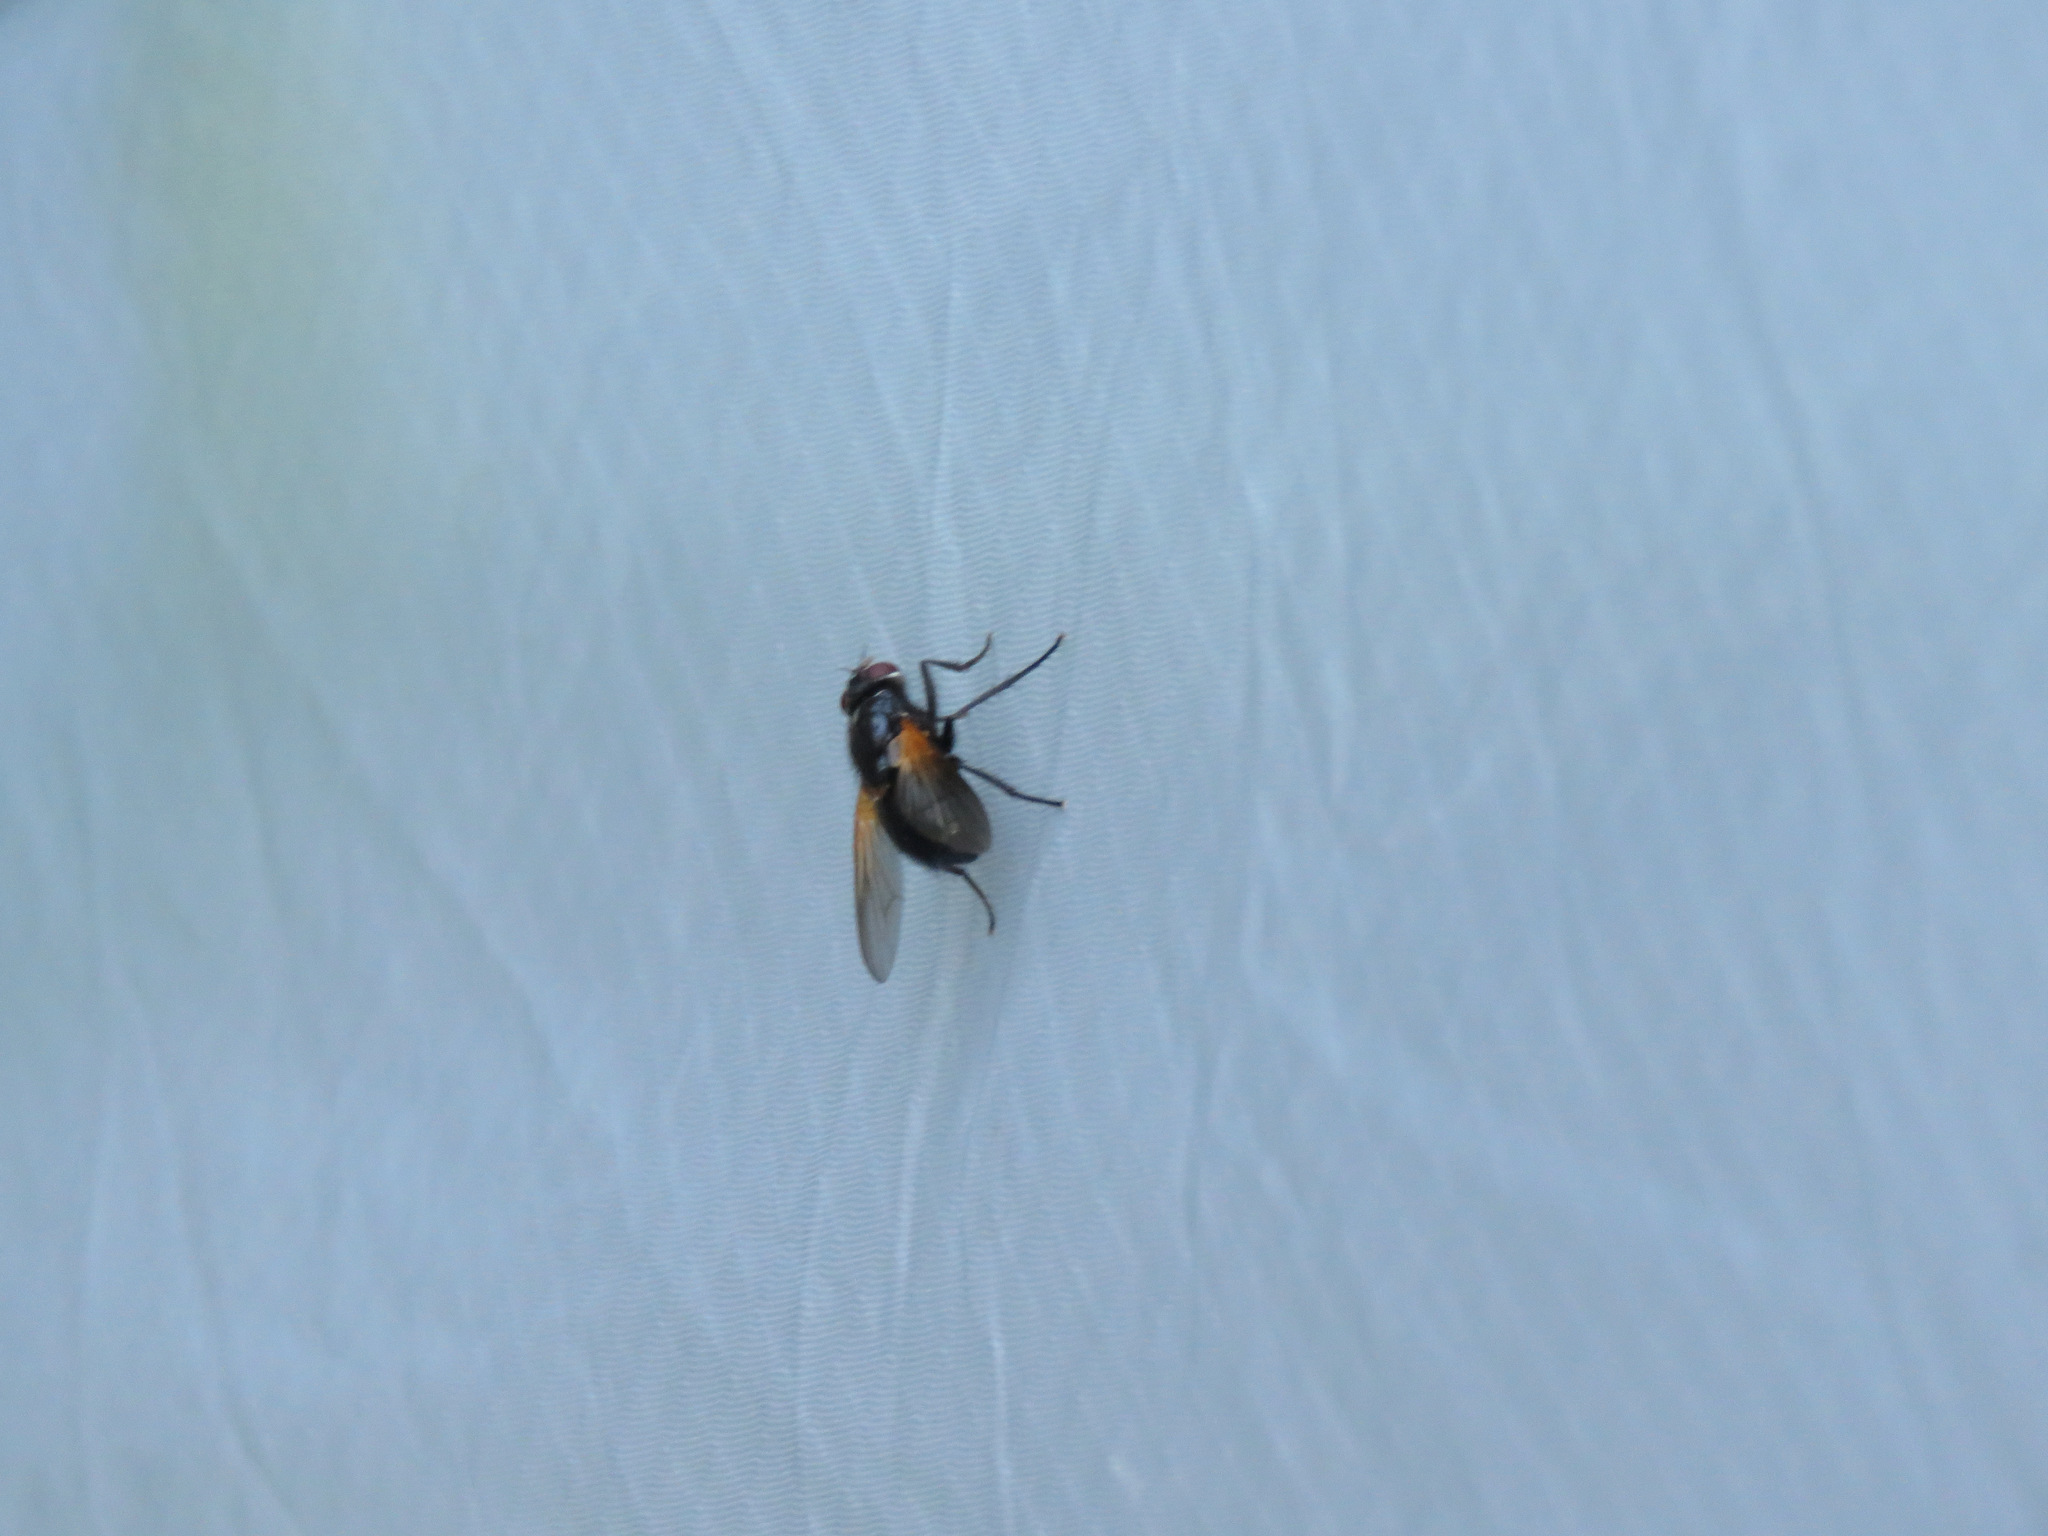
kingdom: Animalia
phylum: Arthropoda
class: Insecta
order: Diptera
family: Muscidae
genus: Mesembrina
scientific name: Mesembrina latreillii
